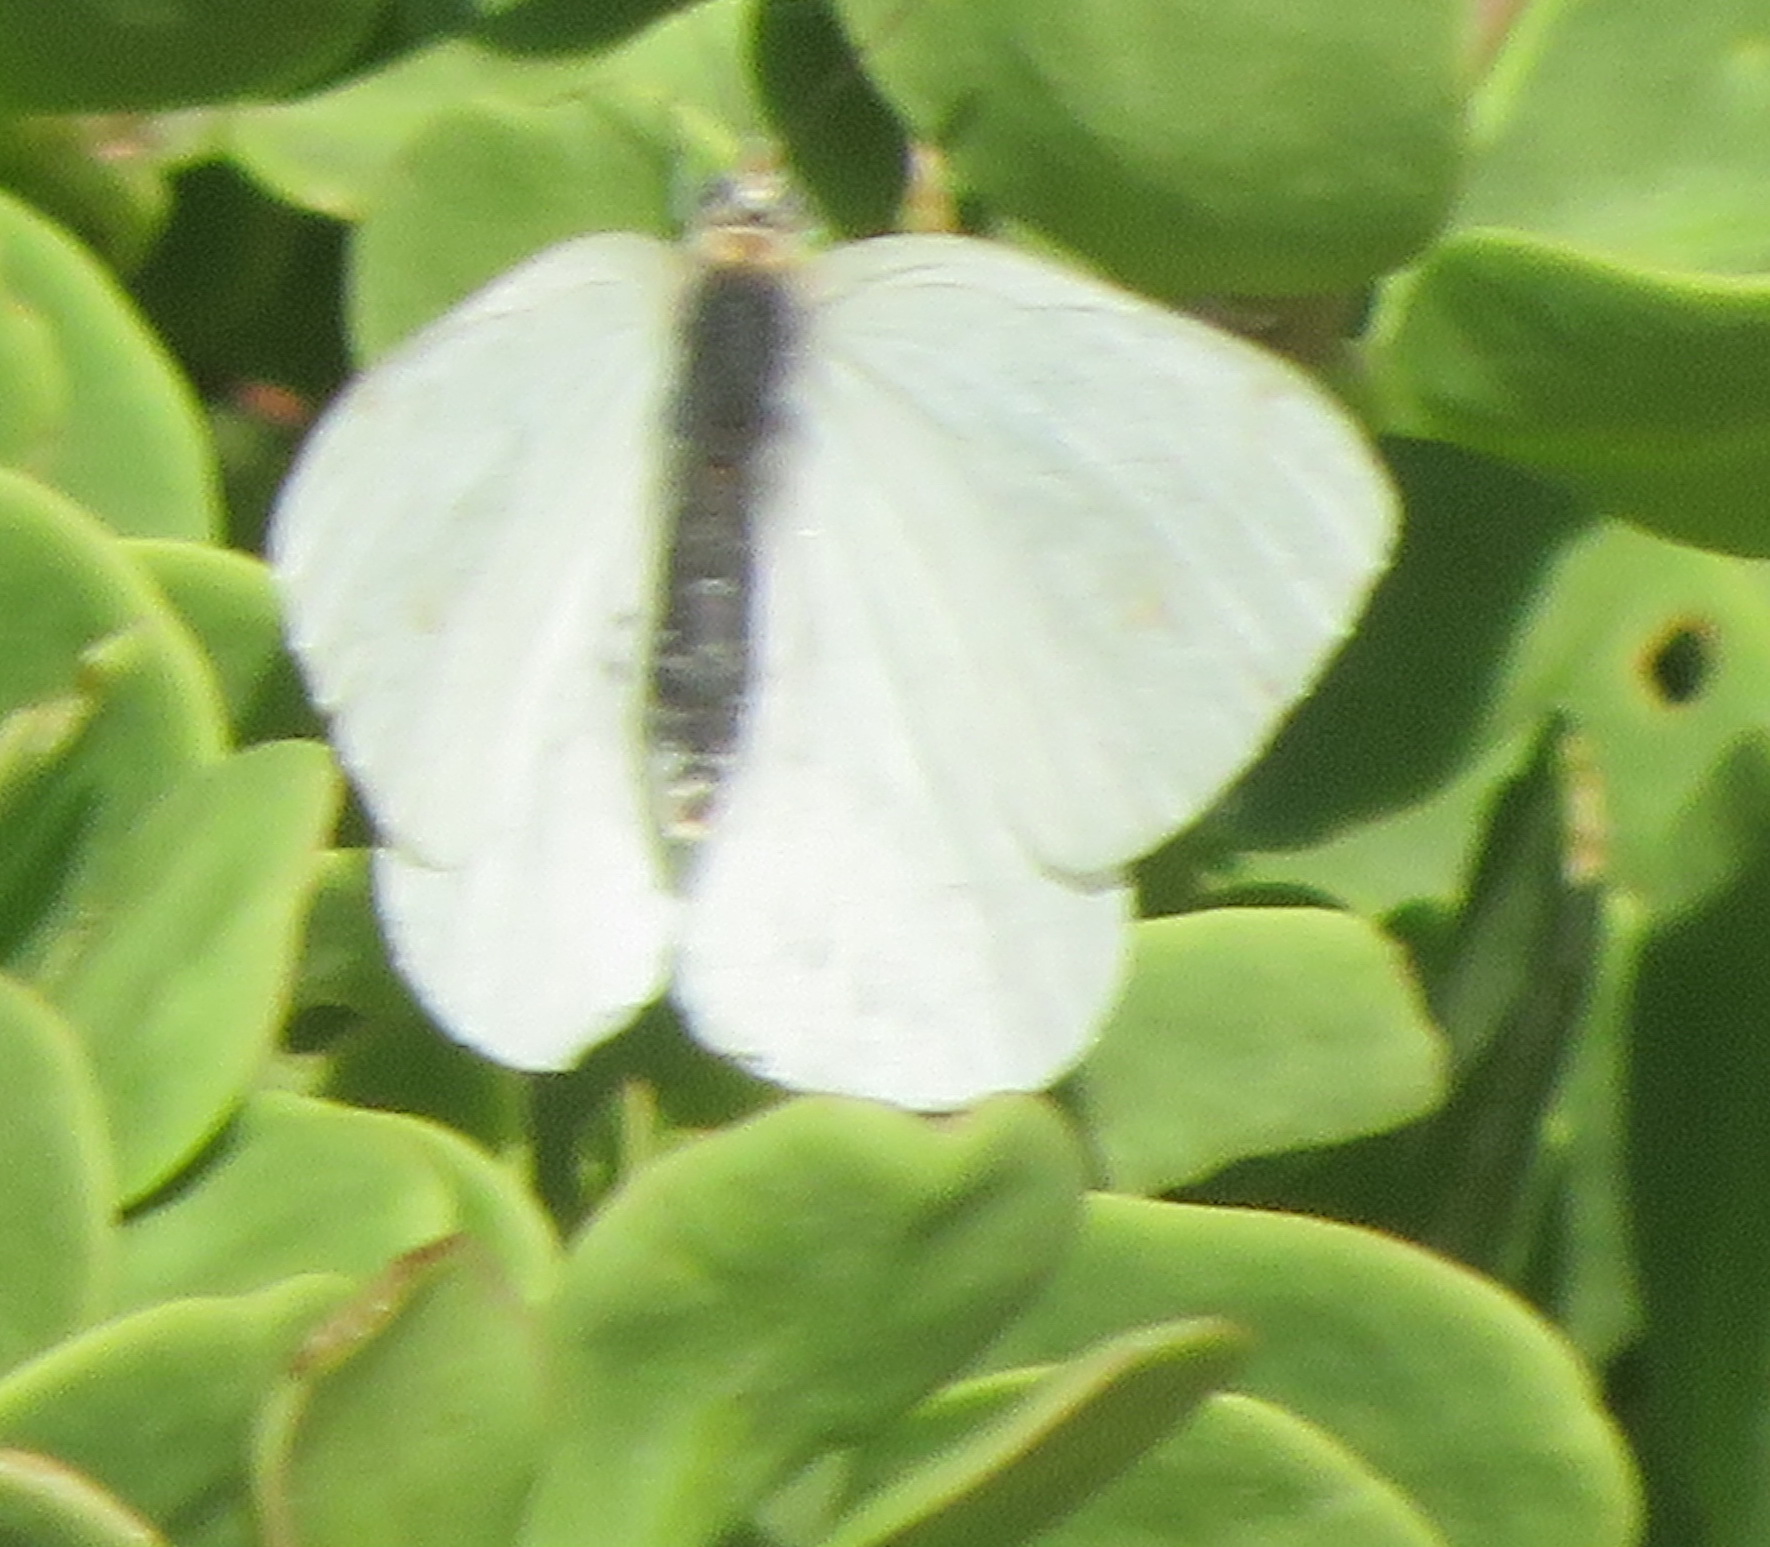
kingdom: Animalia
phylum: Arthropoda
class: Insecta
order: Lepidoptera
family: Pieridae
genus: Dixeia
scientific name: Dixeia charina
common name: African small white
